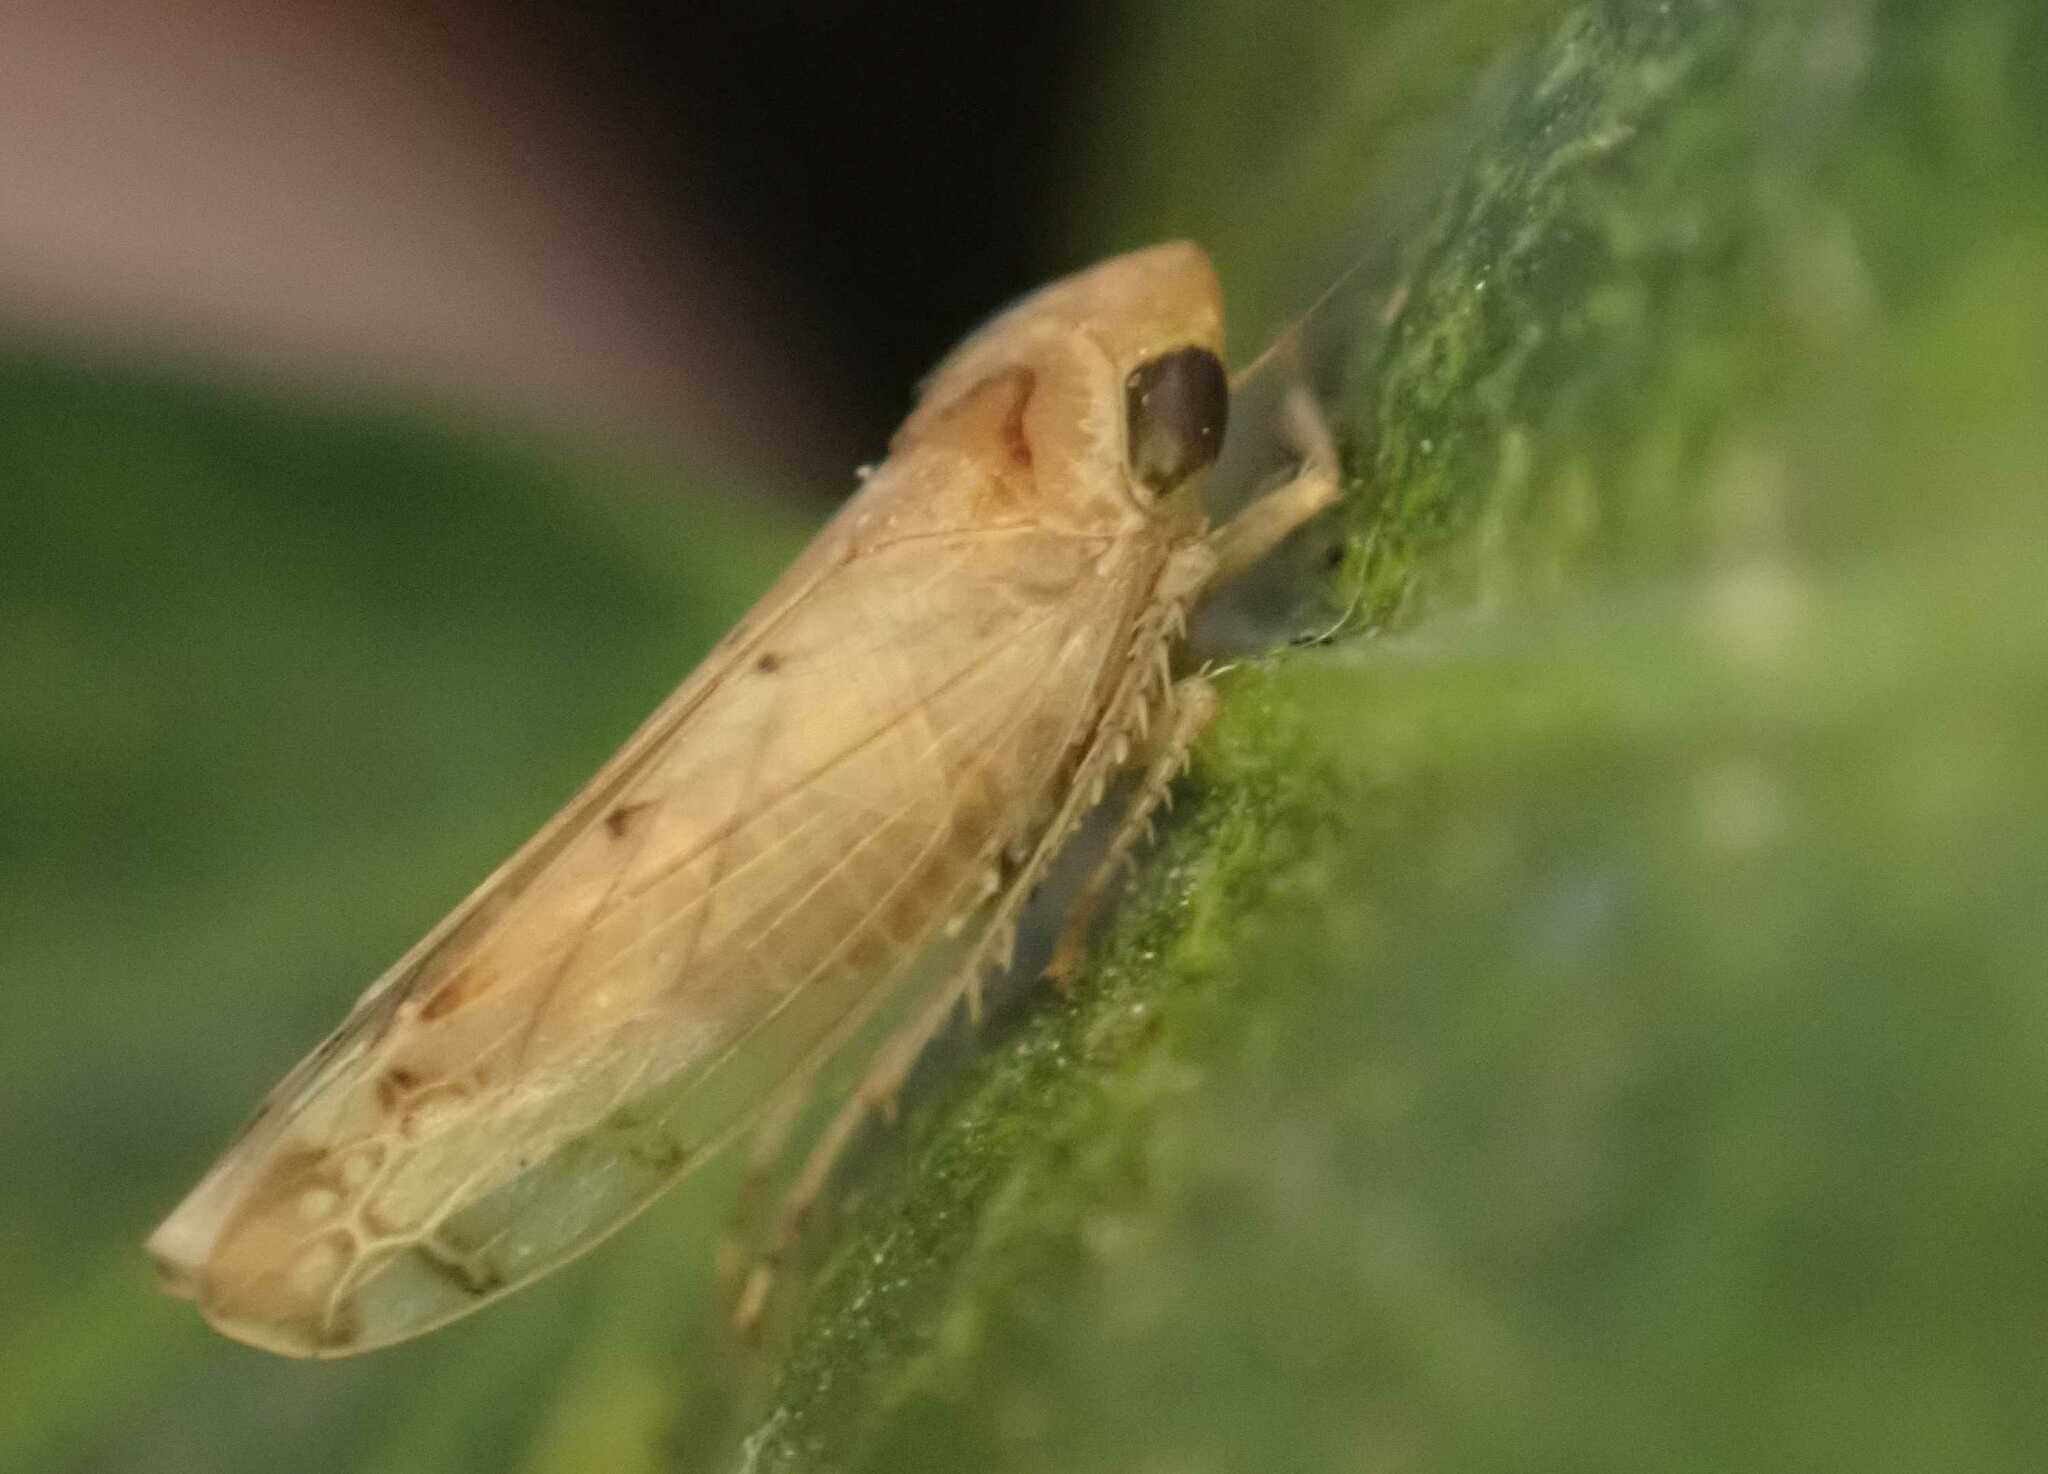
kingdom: Animalia
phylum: Arthropoda
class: Insecta
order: Hemiptera
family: Cicadellidae
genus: Synophropsis
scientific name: Synophropsis lauri
